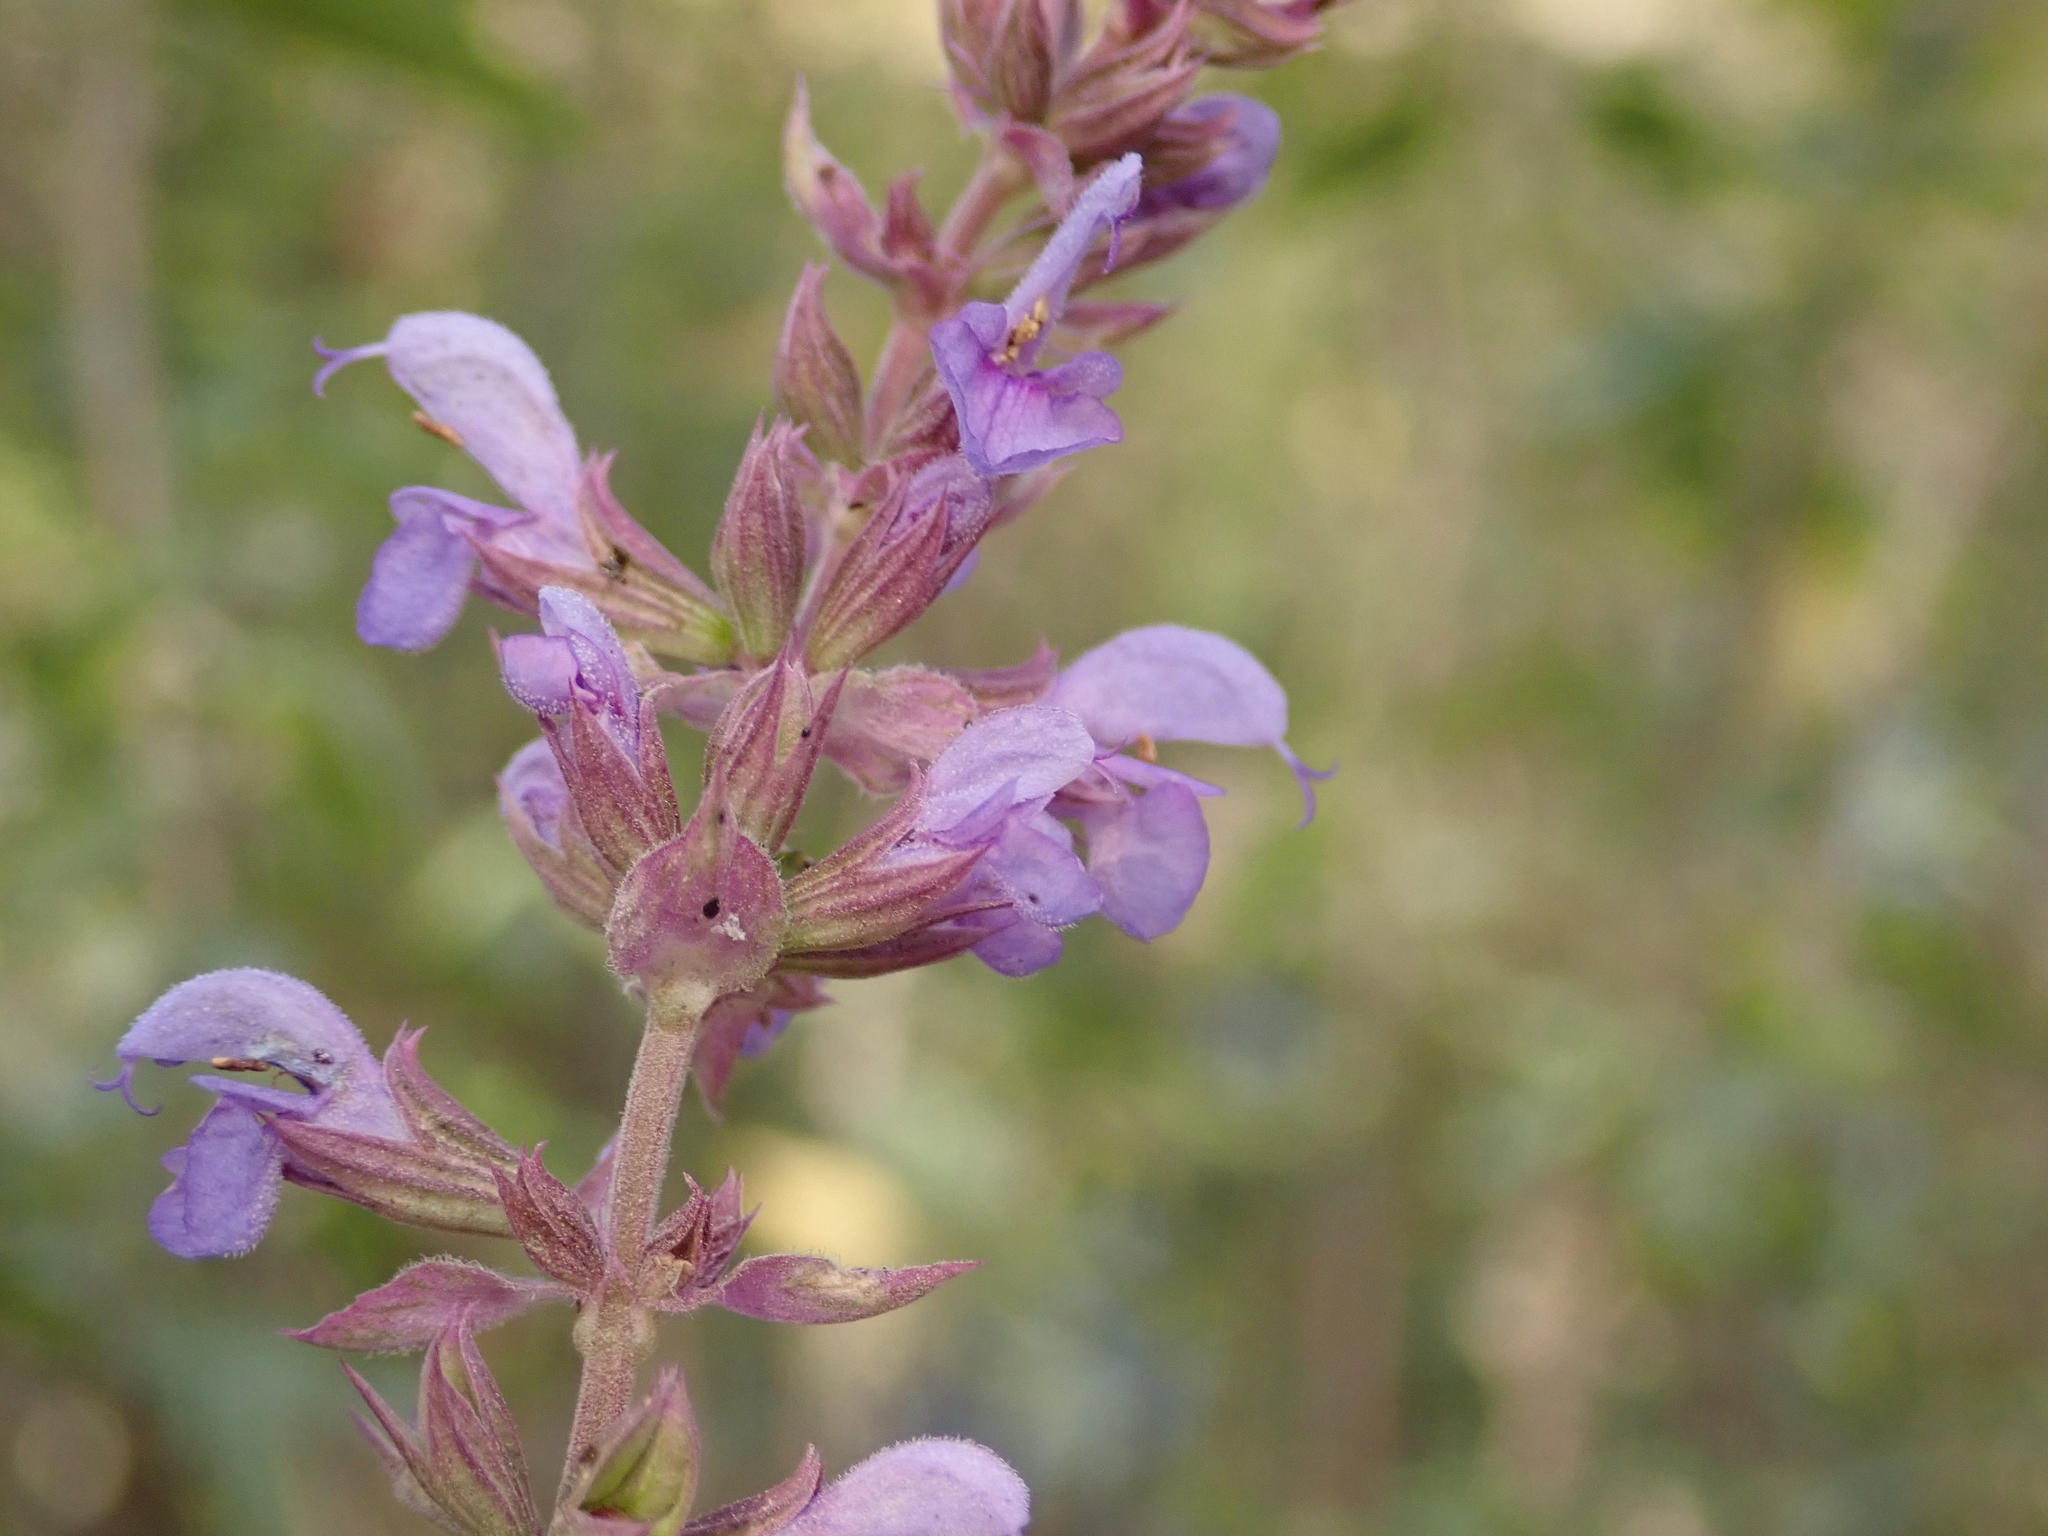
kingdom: Plantae
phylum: Tracheophyta
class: Magnoliopsida
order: Lamiales
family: Lamiaceae
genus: Salvia
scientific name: Salvia nemorosa
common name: Balkan clary
